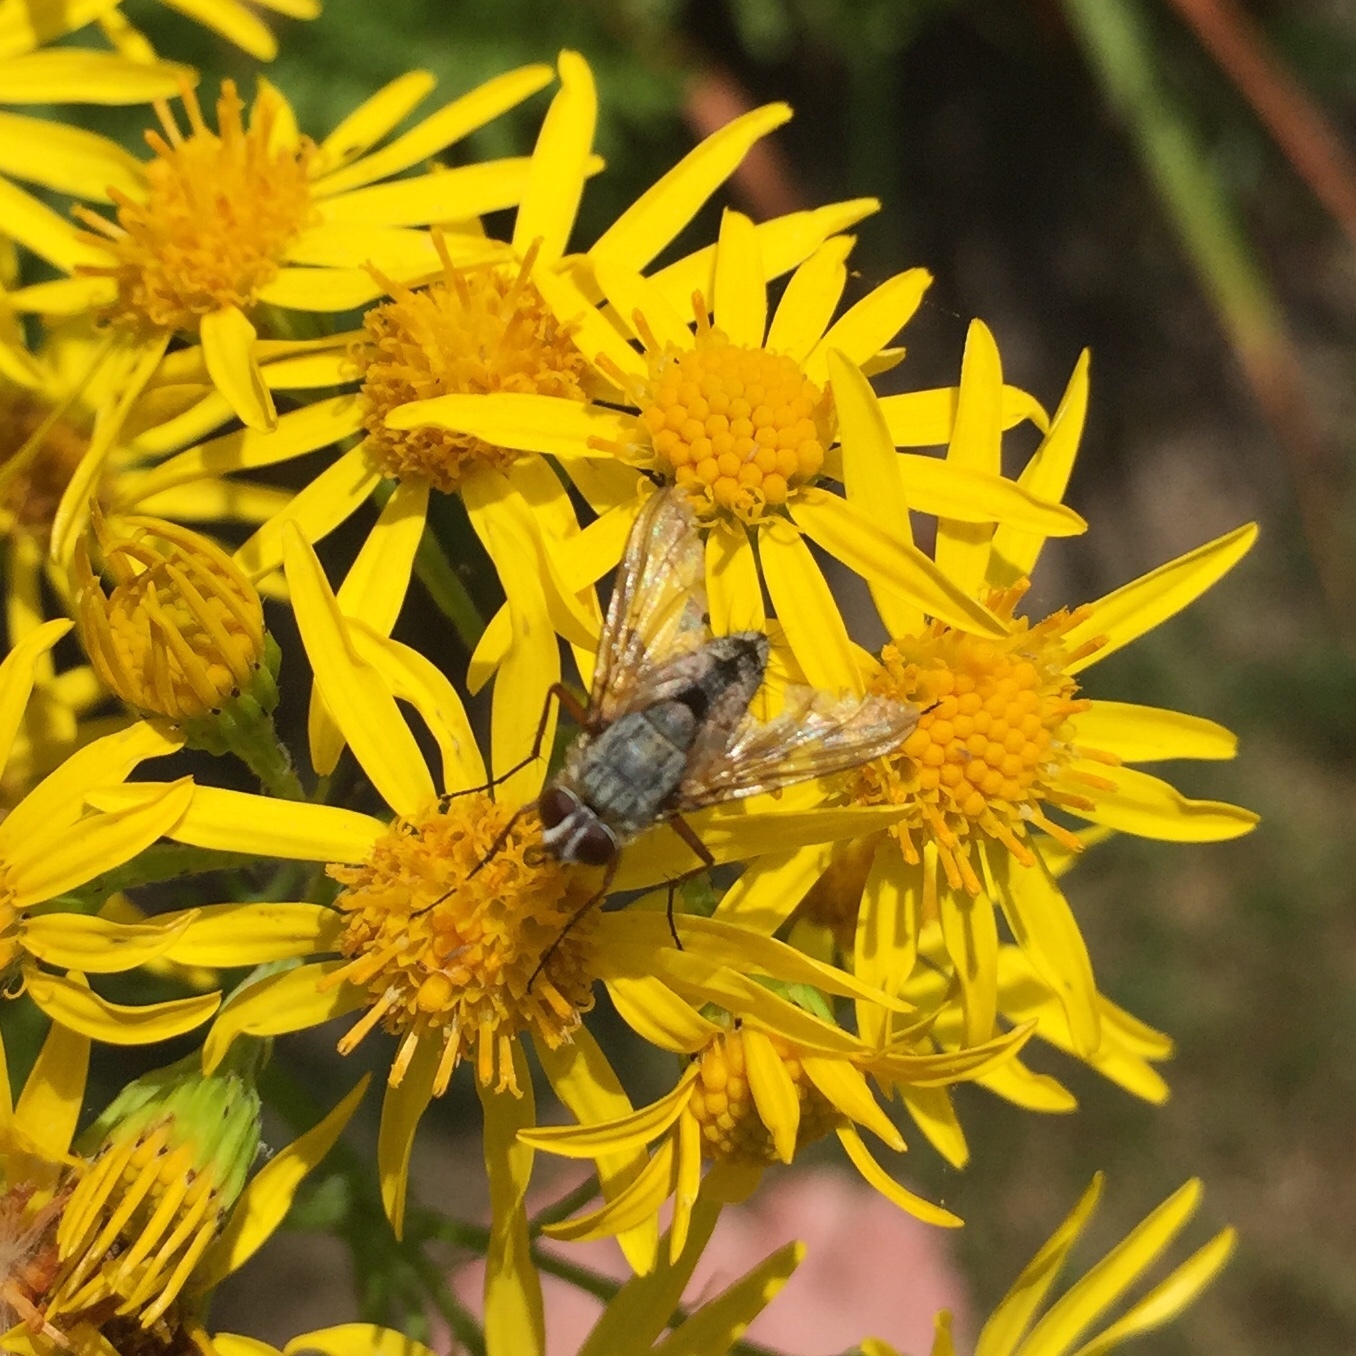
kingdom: Animalia
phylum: Arthropoda
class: Insecta
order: Diptera
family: Tachinidae
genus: Prosena
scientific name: Prosena siberita
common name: Parasitic fly
